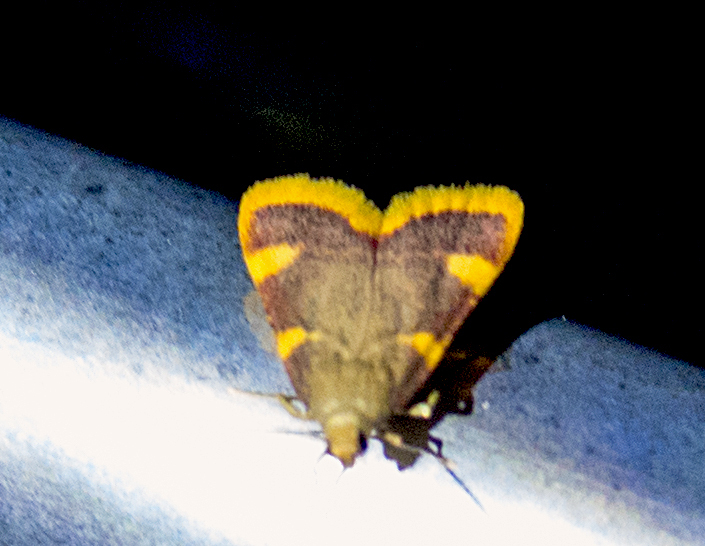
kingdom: Animalia
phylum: Arthropoda
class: Insecta
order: Lepidoptera
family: Pyralidae
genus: Hypsopygia
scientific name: Hypsopygia costalis
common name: Gold triangle
